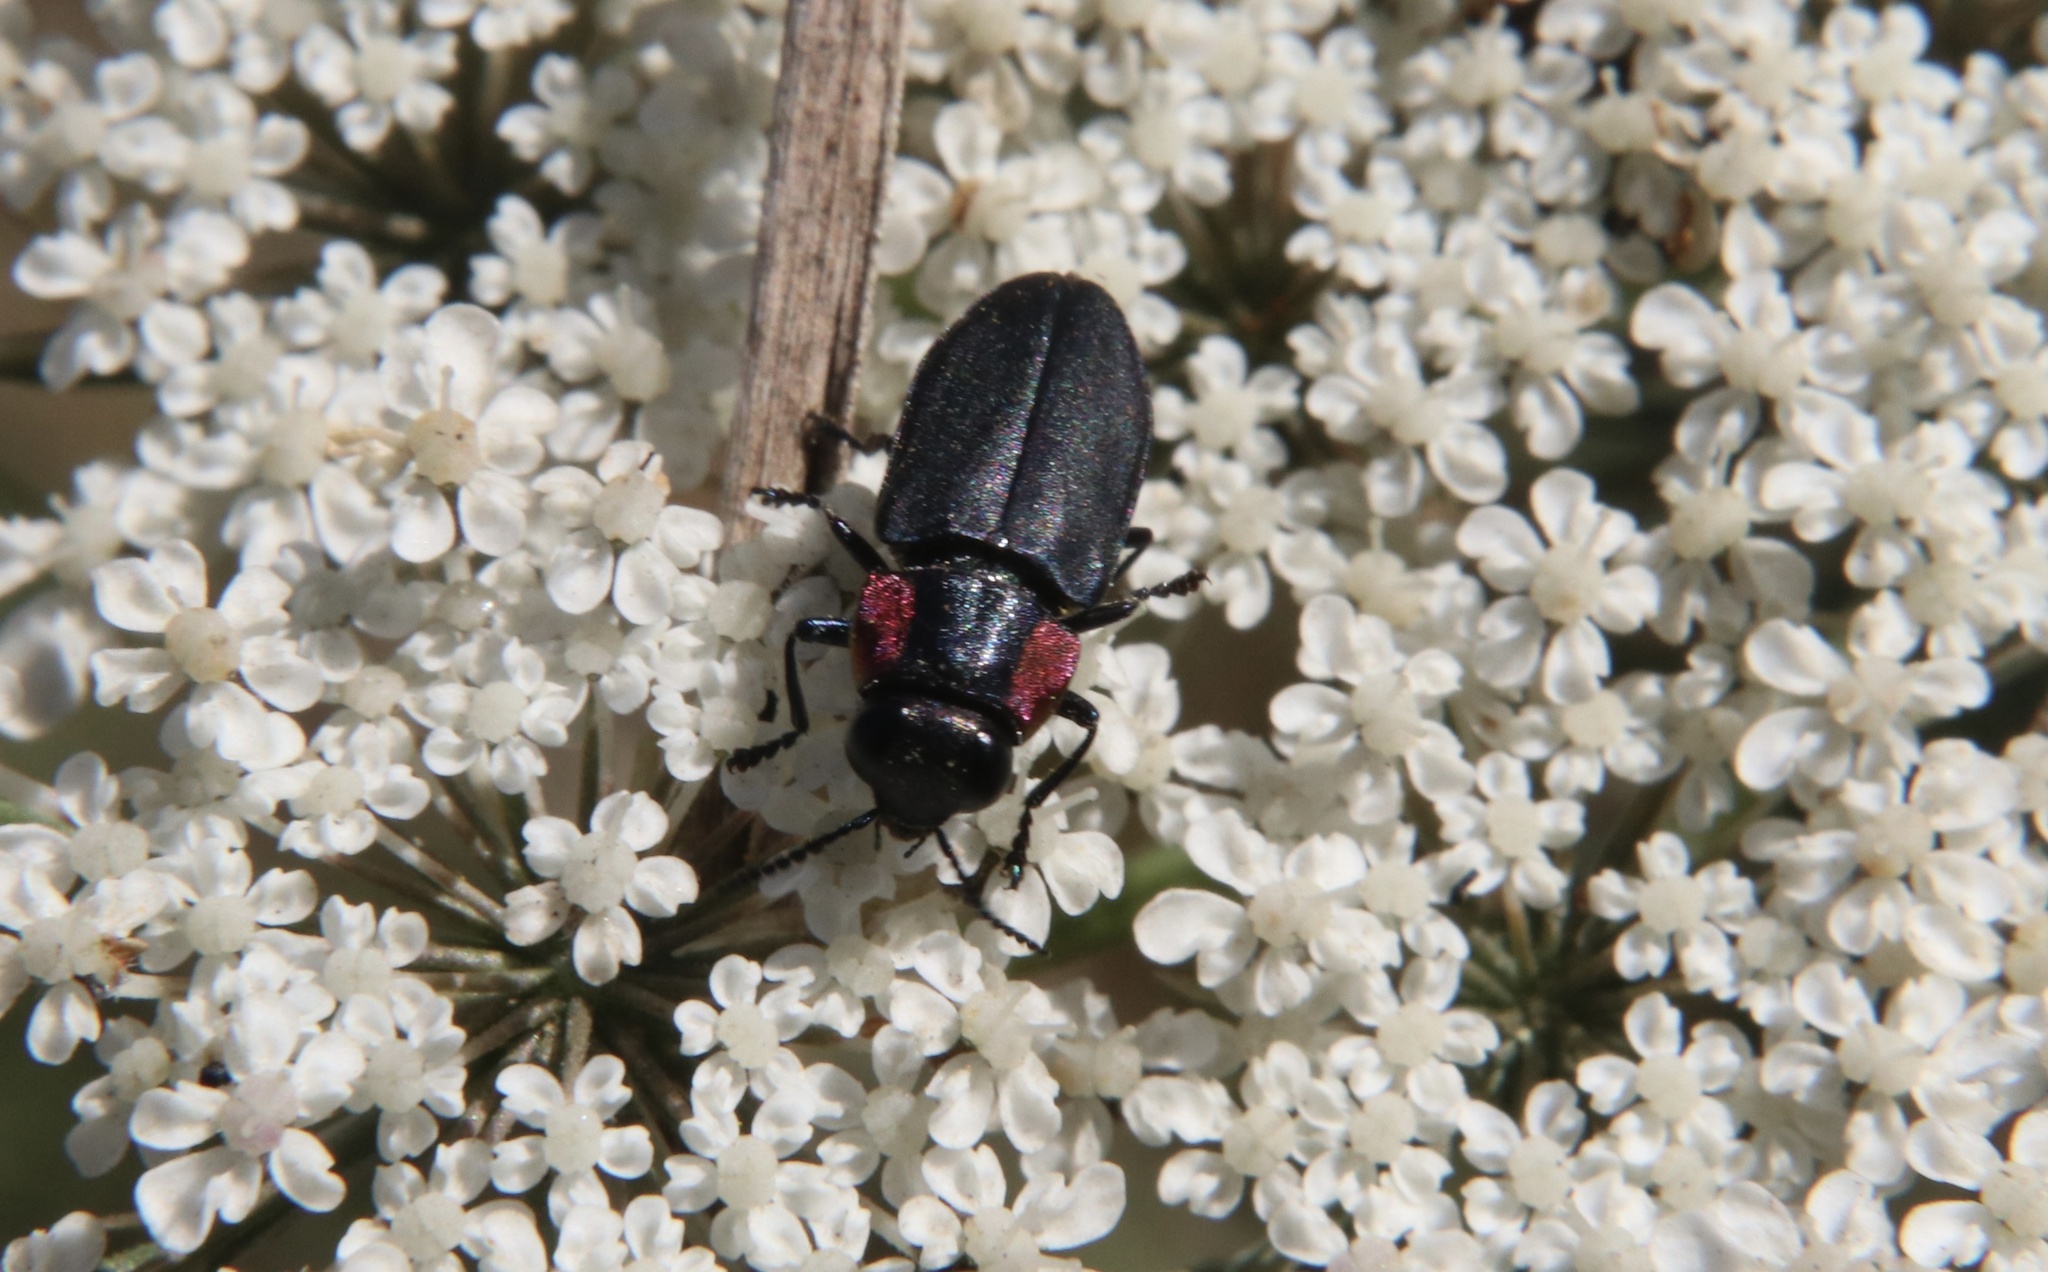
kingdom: Animalia
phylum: Arthropoda
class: Insecta
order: Coleoptera
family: Buprestidae
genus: Romanophora
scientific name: Romanophora verecunda
